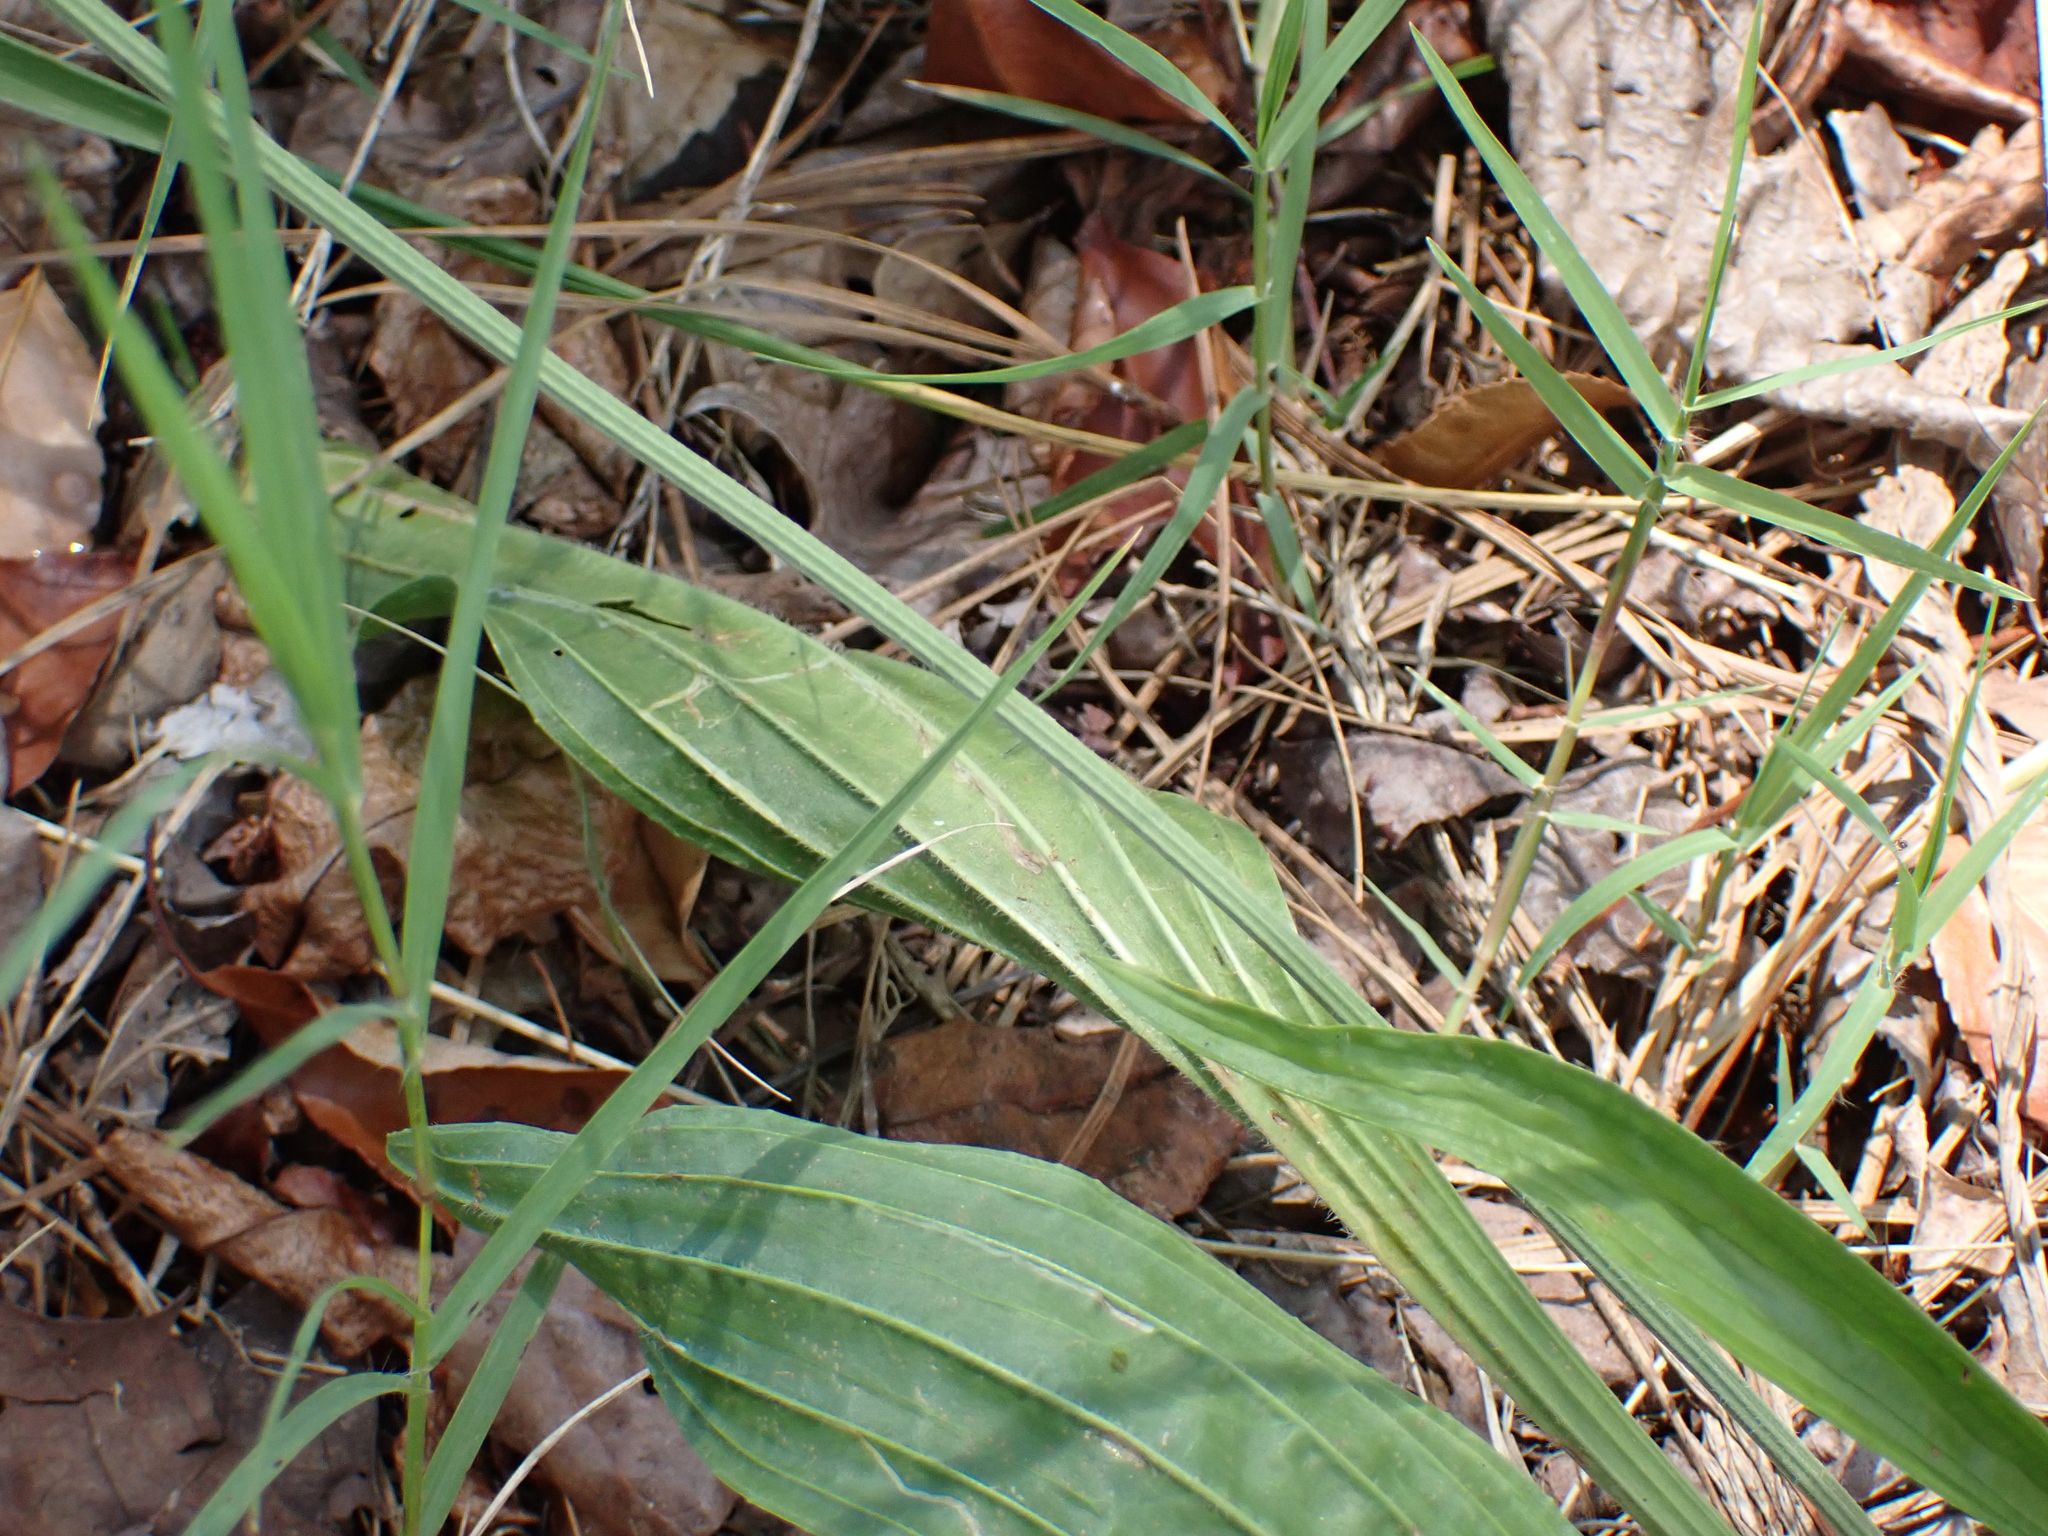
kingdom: Plantae
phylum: Tracheophyta
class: Magnoliopsida
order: Lamiales
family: Plantaginaceae
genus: Plantago
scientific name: Plantago lanceolata
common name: Ribwort plantain
